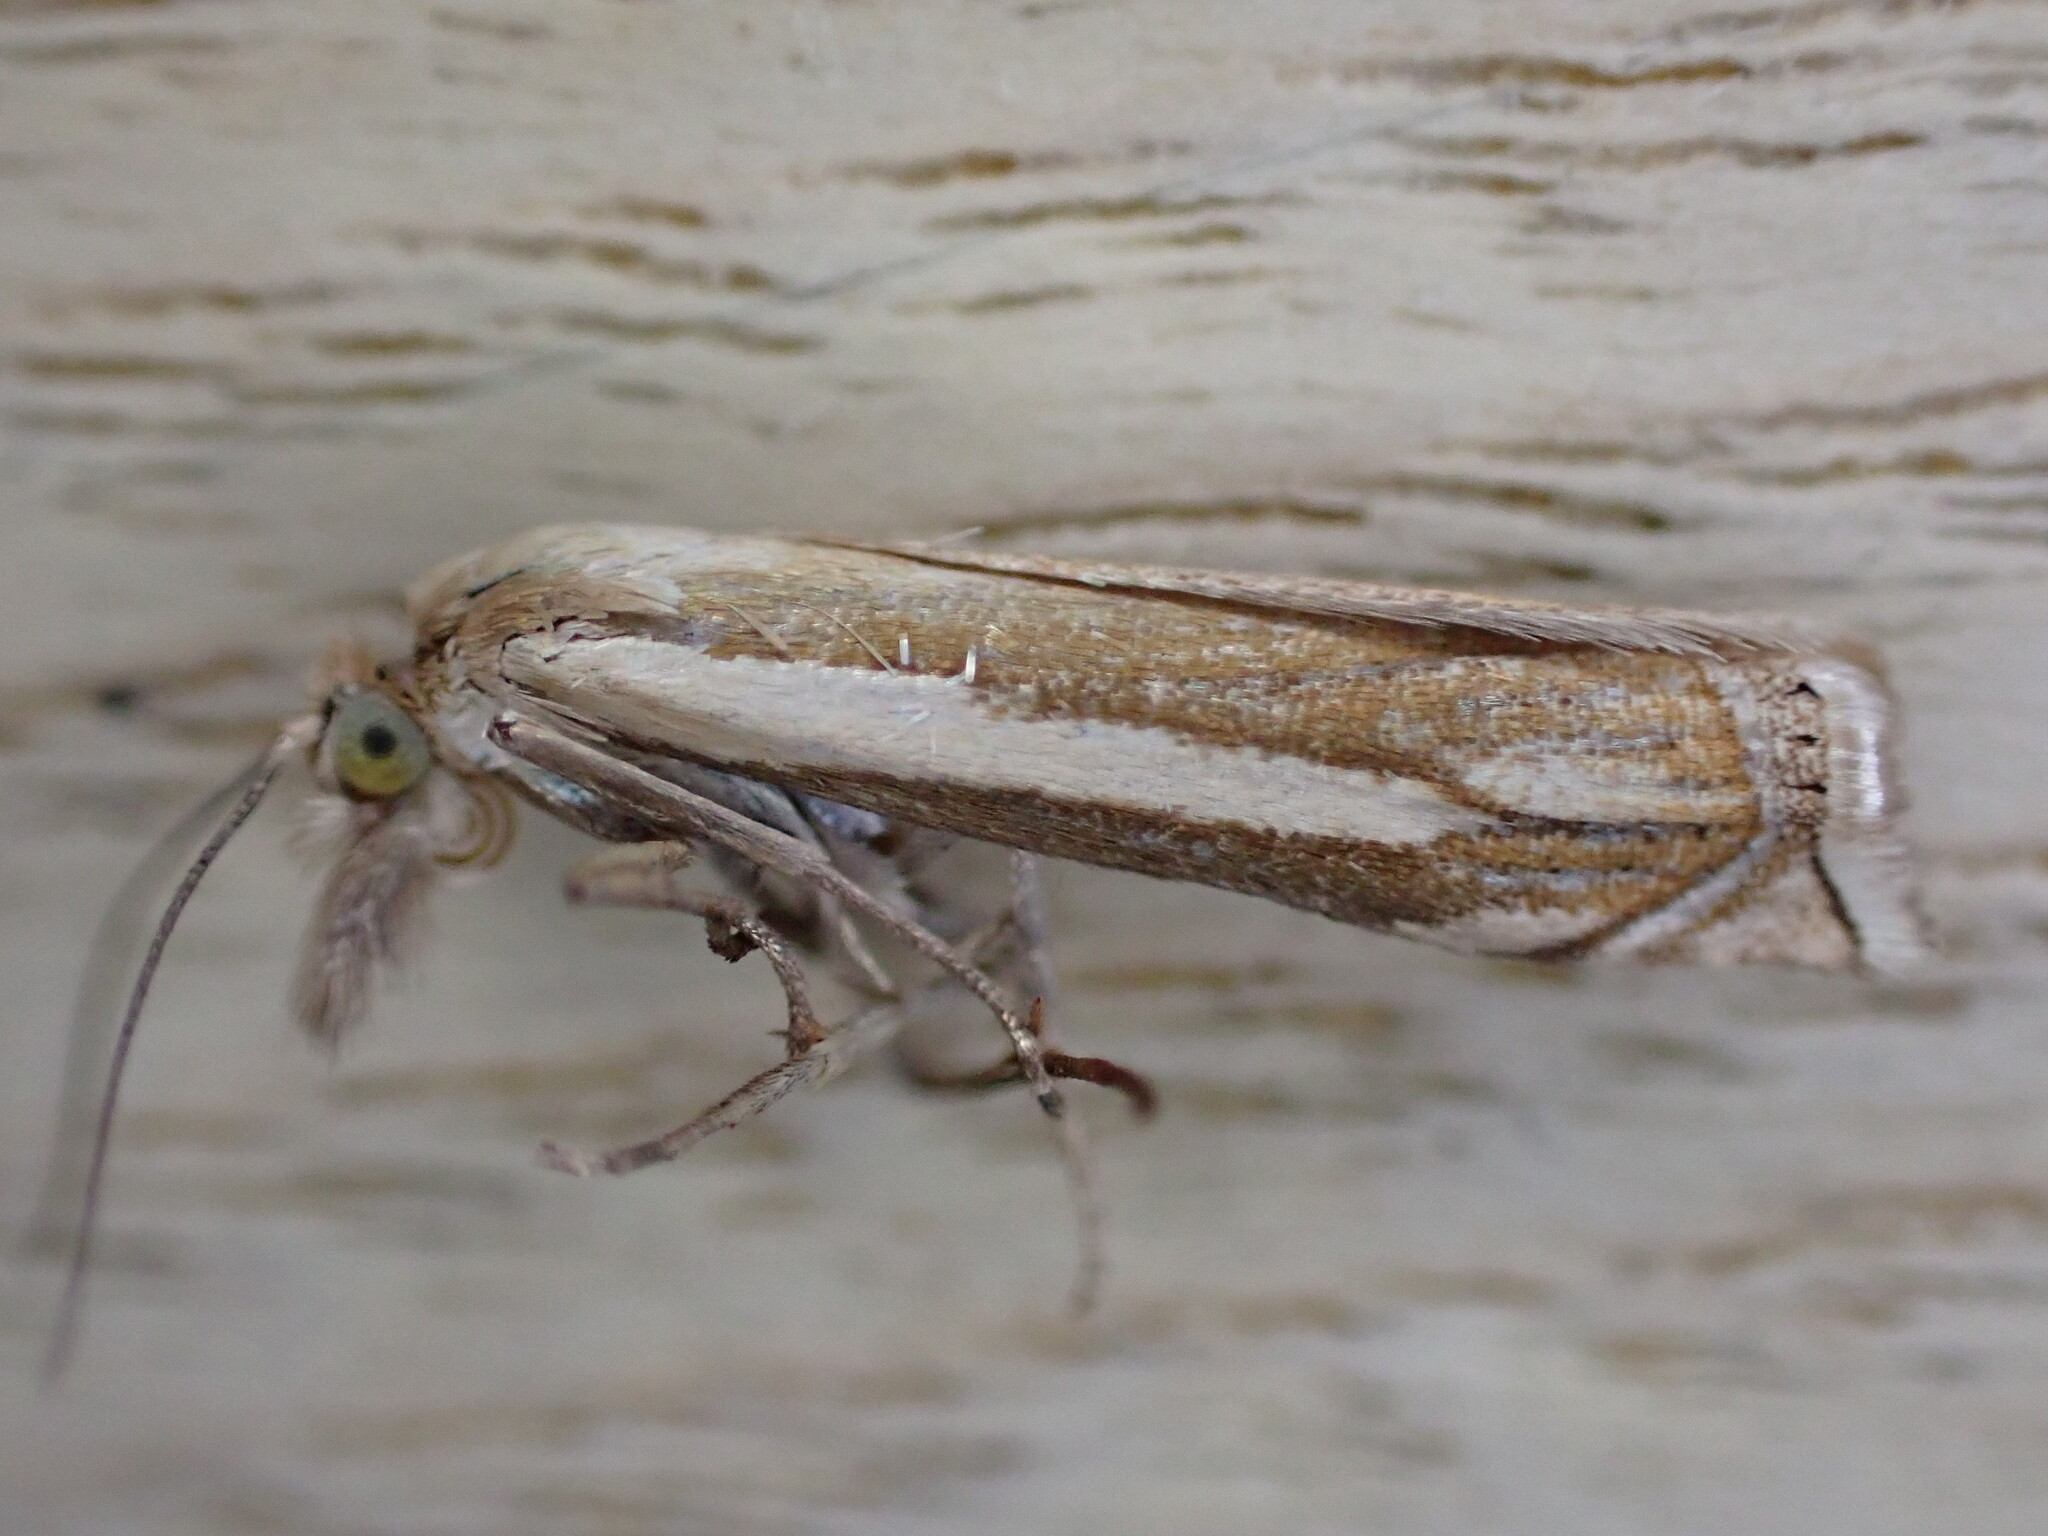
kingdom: Animalia
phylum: Arthropoda
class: Insecta
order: Lepidoptera
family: Crambidae
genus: Crambus
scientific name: Crambus pascuella
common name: Inlaid grass-veneer
